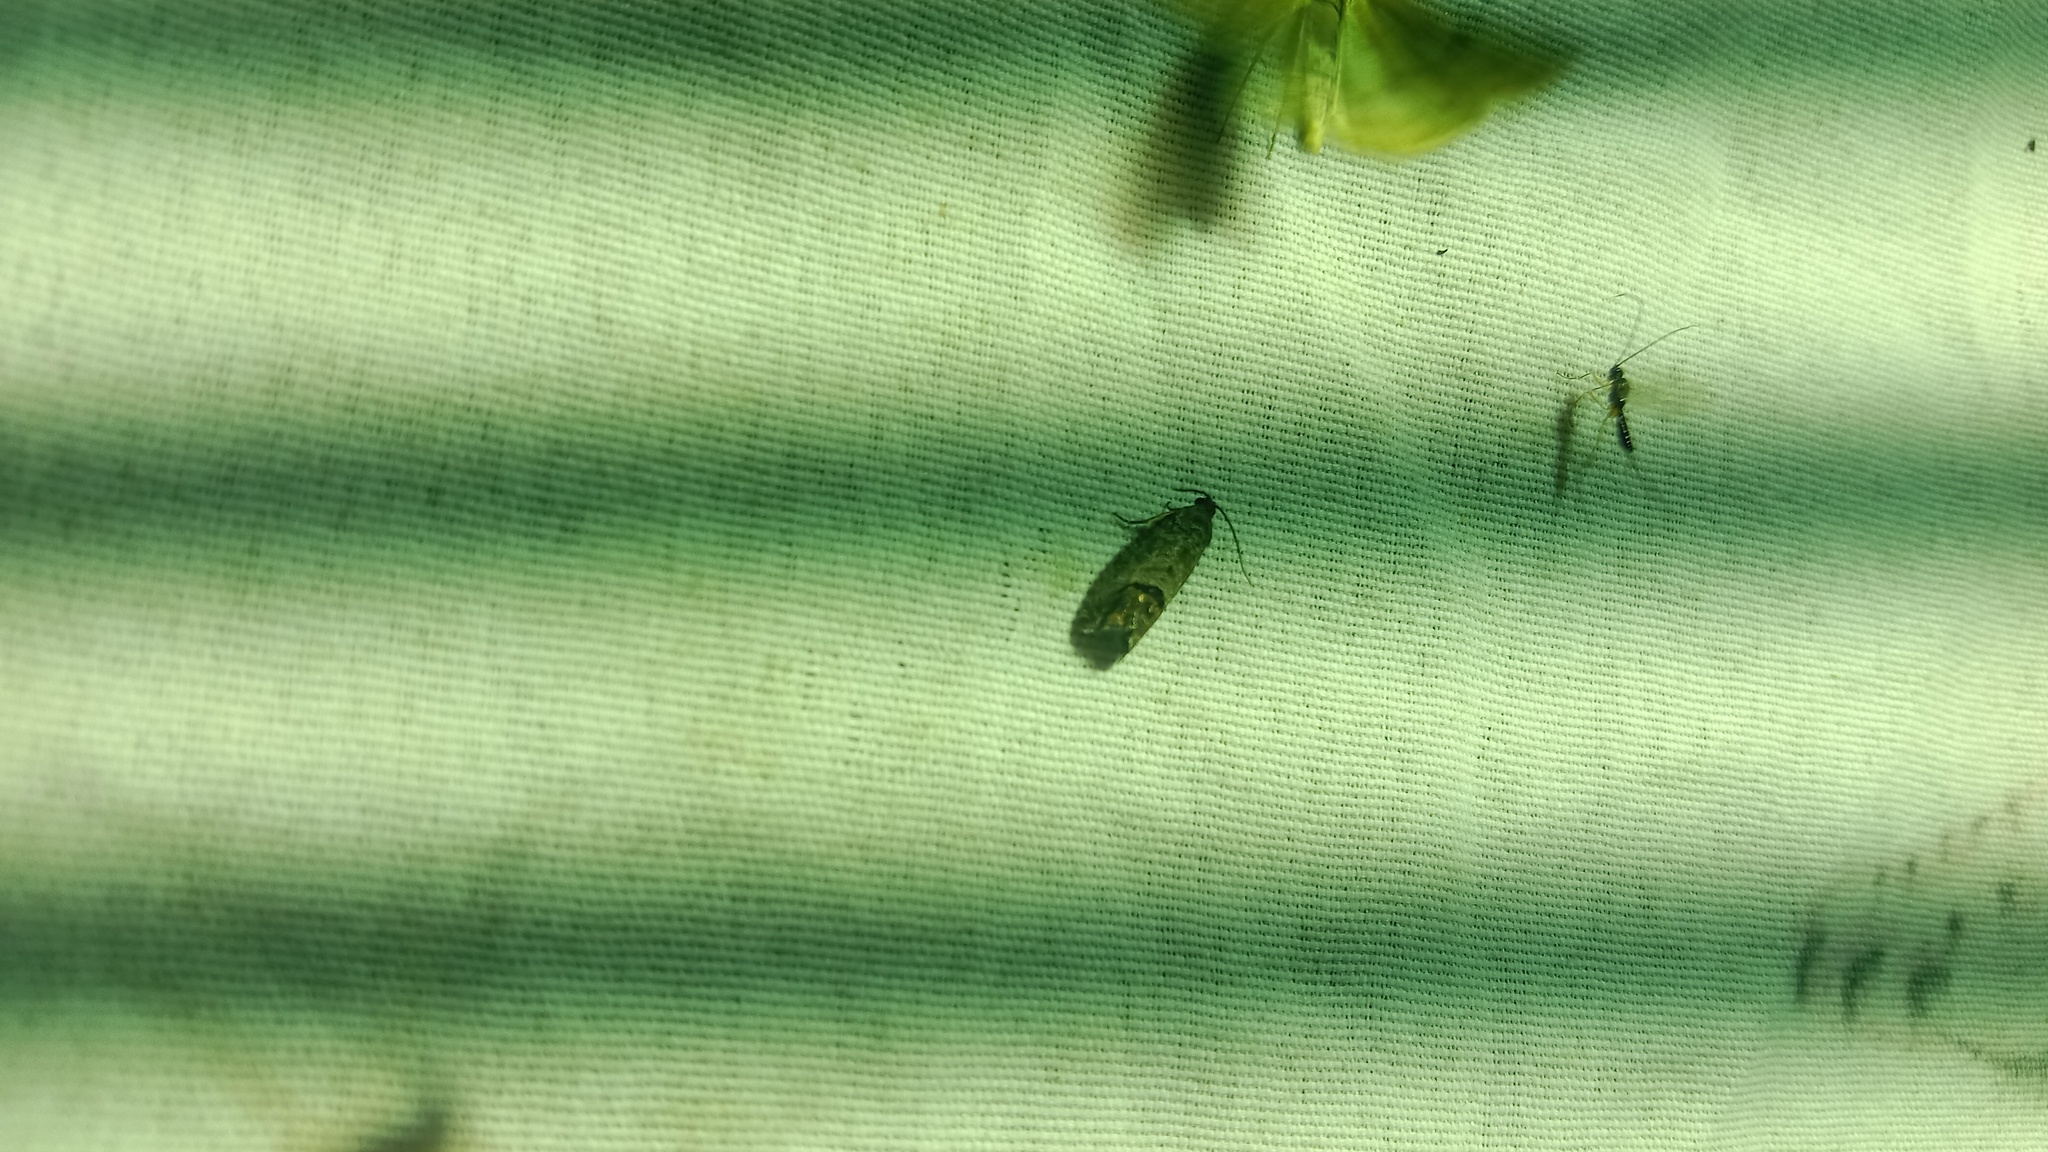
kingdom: Animalia
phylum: Arthropoda
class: Insecta
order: Lepidoptera
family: Tortricidae
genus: Cydia
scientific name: Cydia pomonella
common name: Codling moth
